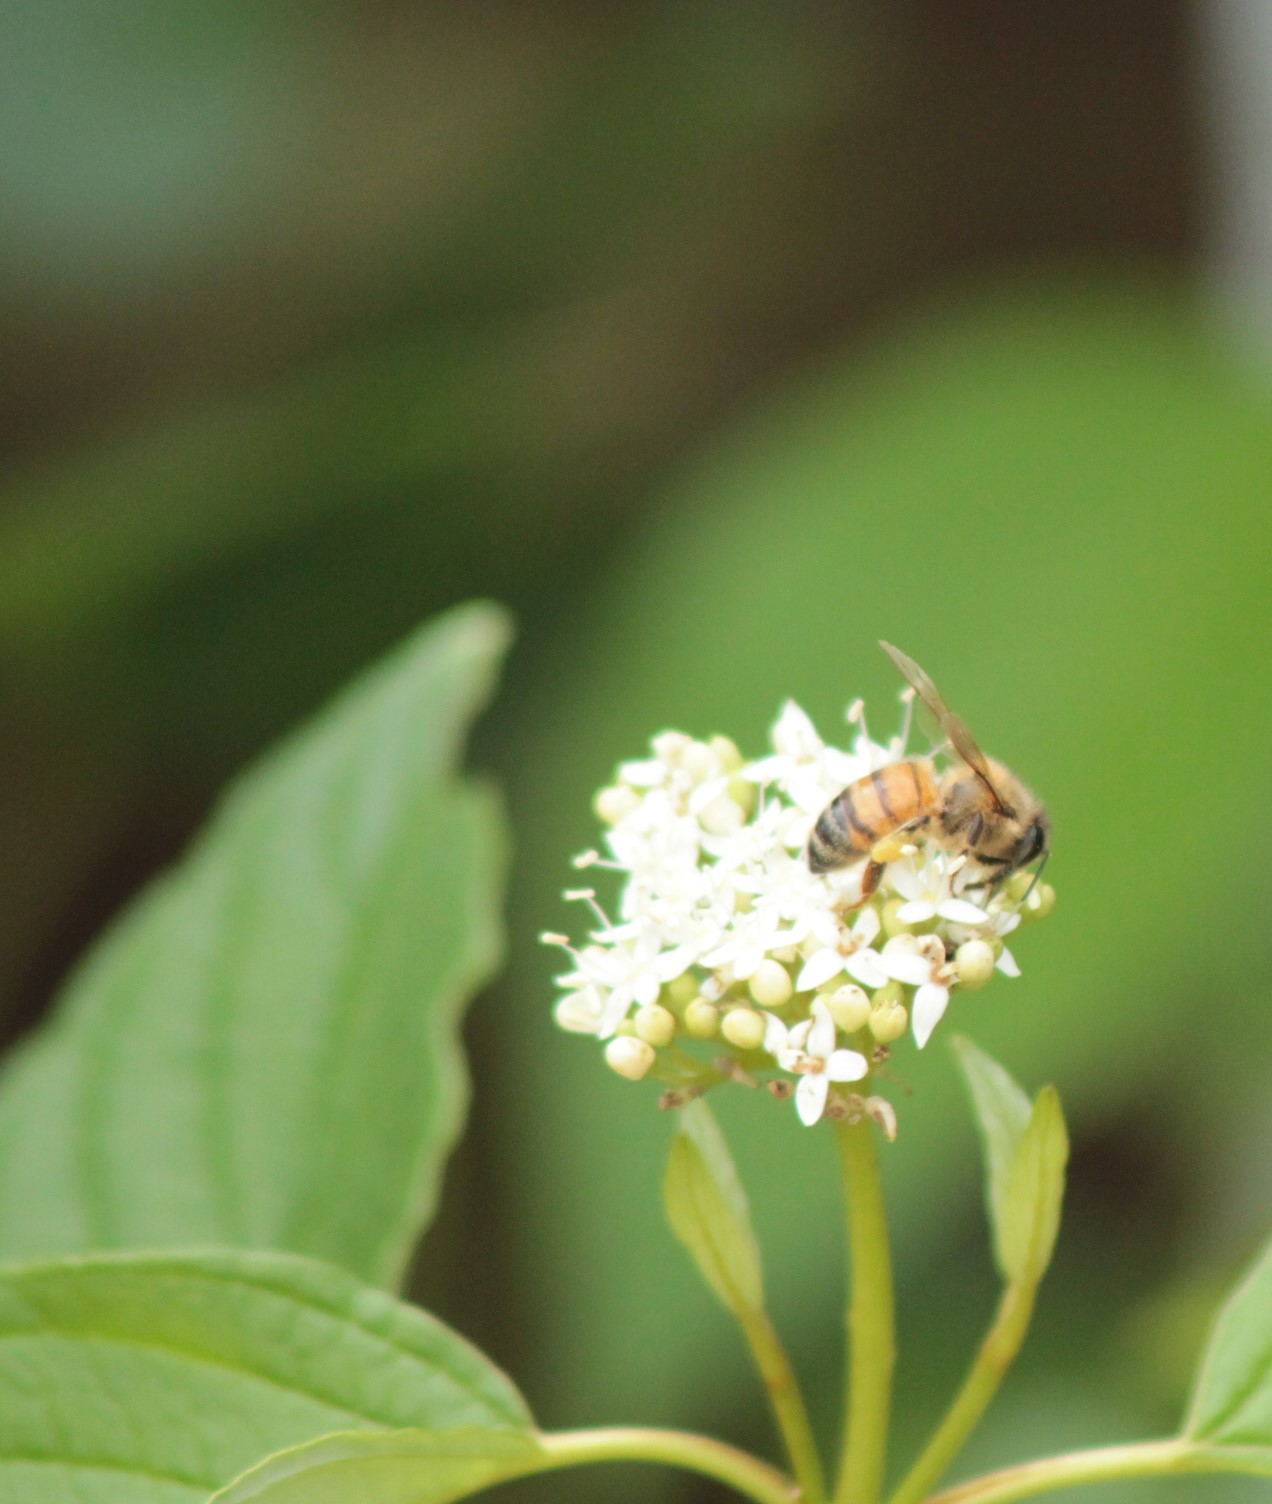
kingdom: Animalia
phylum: Arthropoda
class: Insecta
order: Hymenoptera
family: Apidae
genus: Apis
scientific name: Apis mellifera
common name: Honey bee
